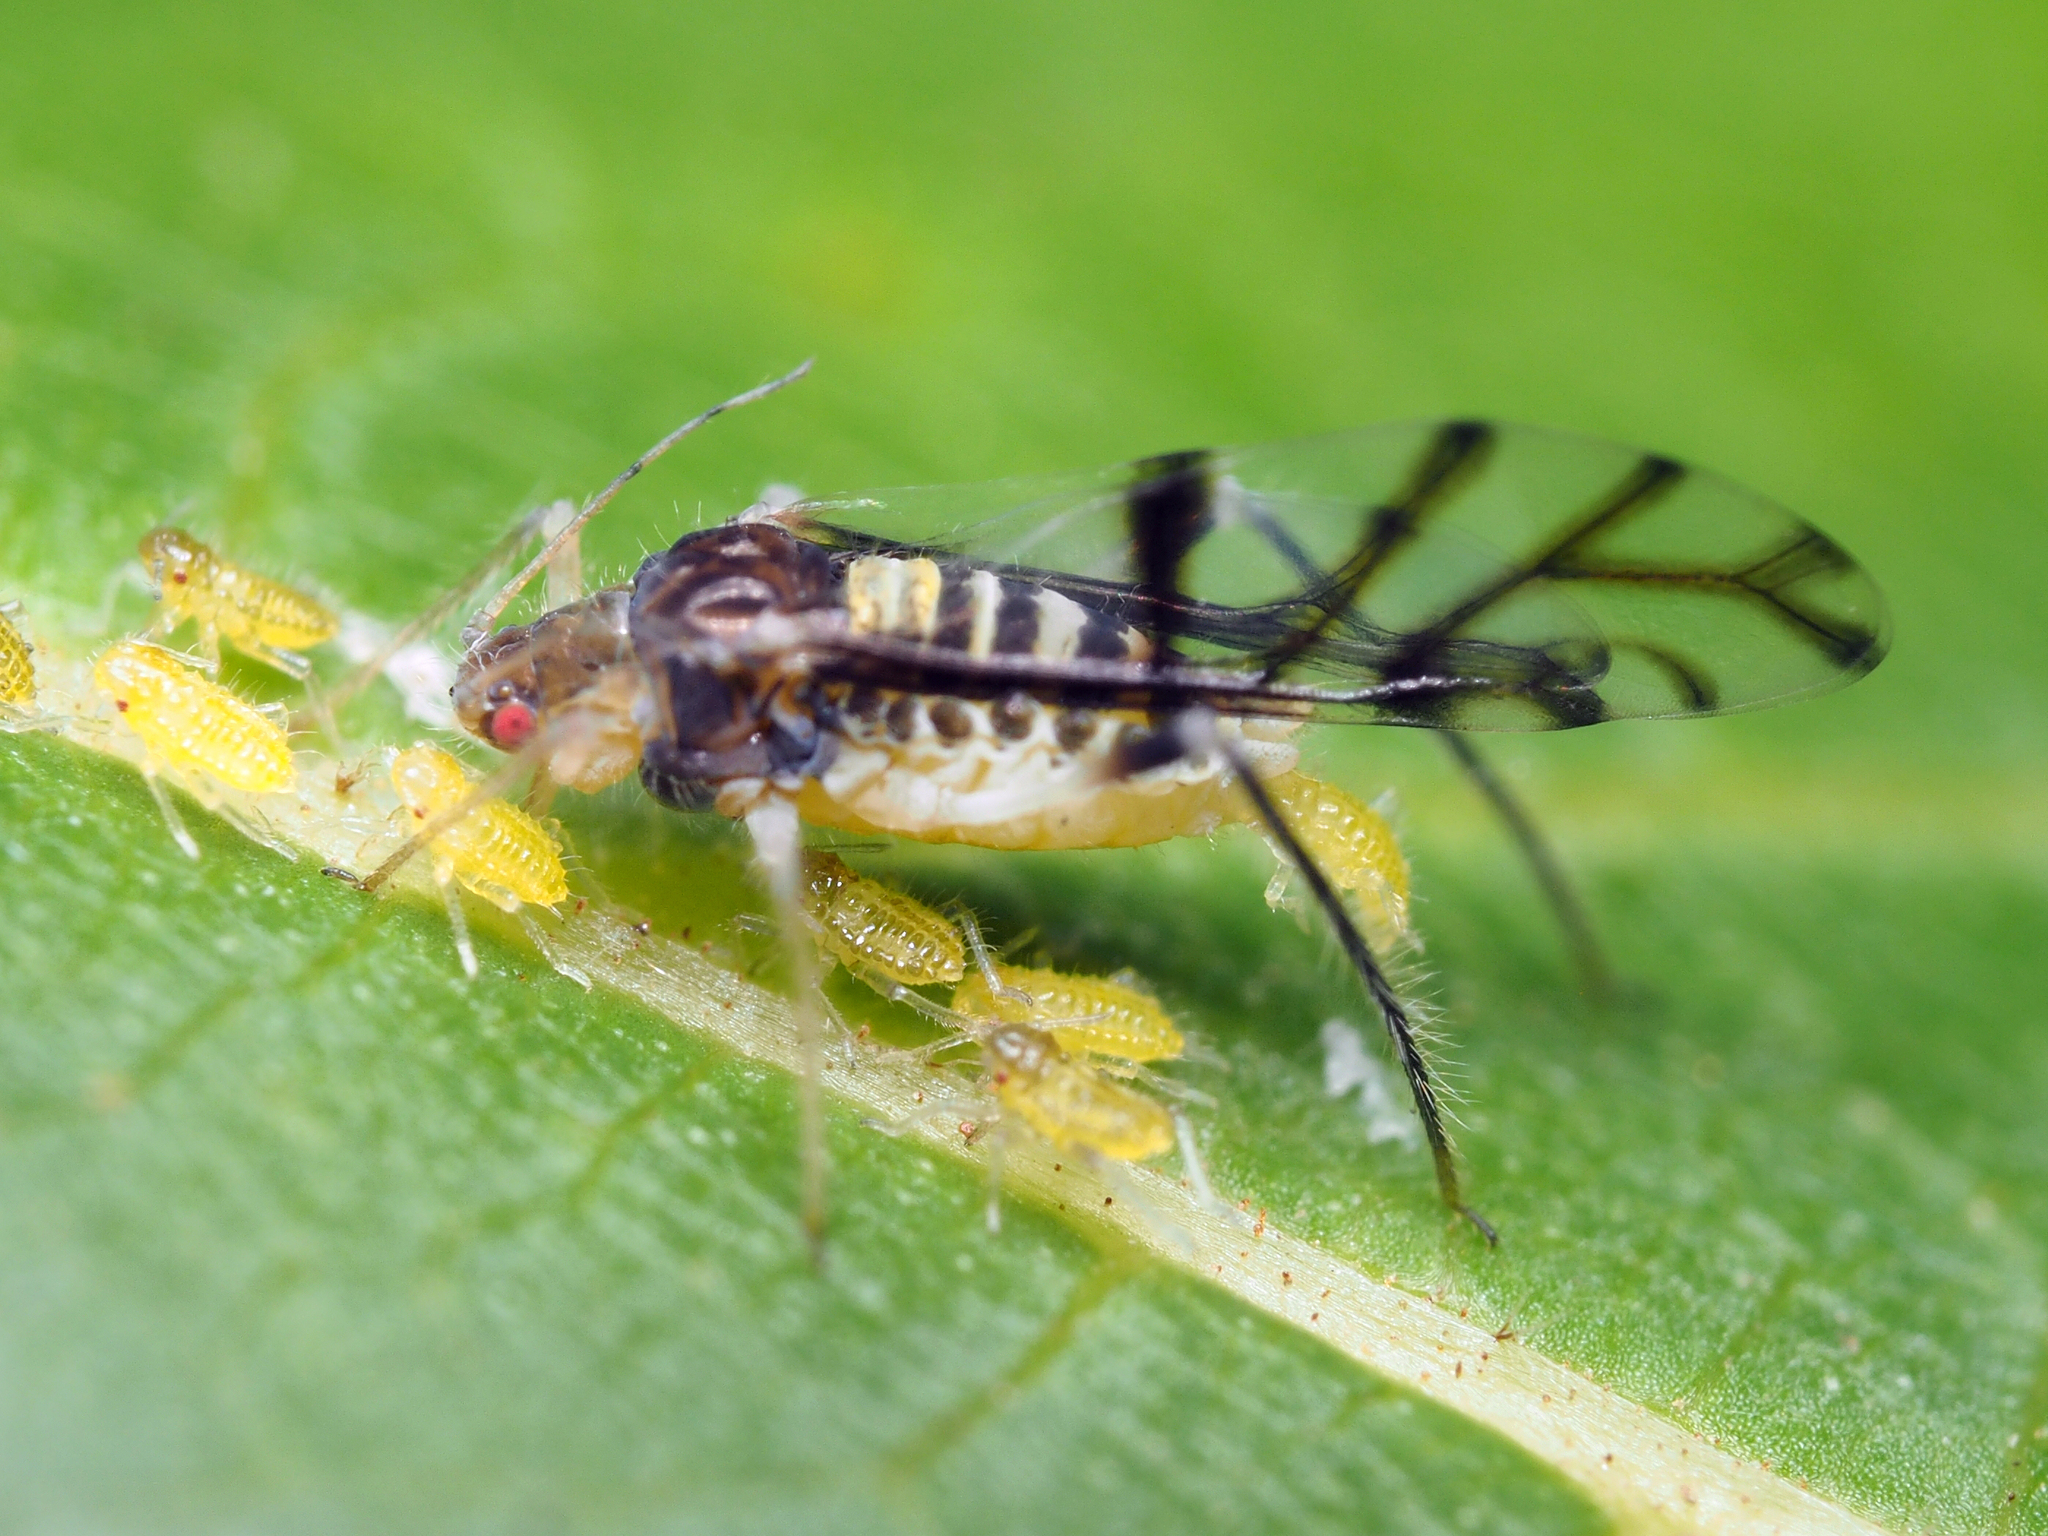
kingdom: Animalia
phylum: Arthropoda
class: Insecta
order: Hemiptera
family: Aphididae
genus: Panaphis
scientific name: Panaphis juglandis
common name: Large walnut aphid
